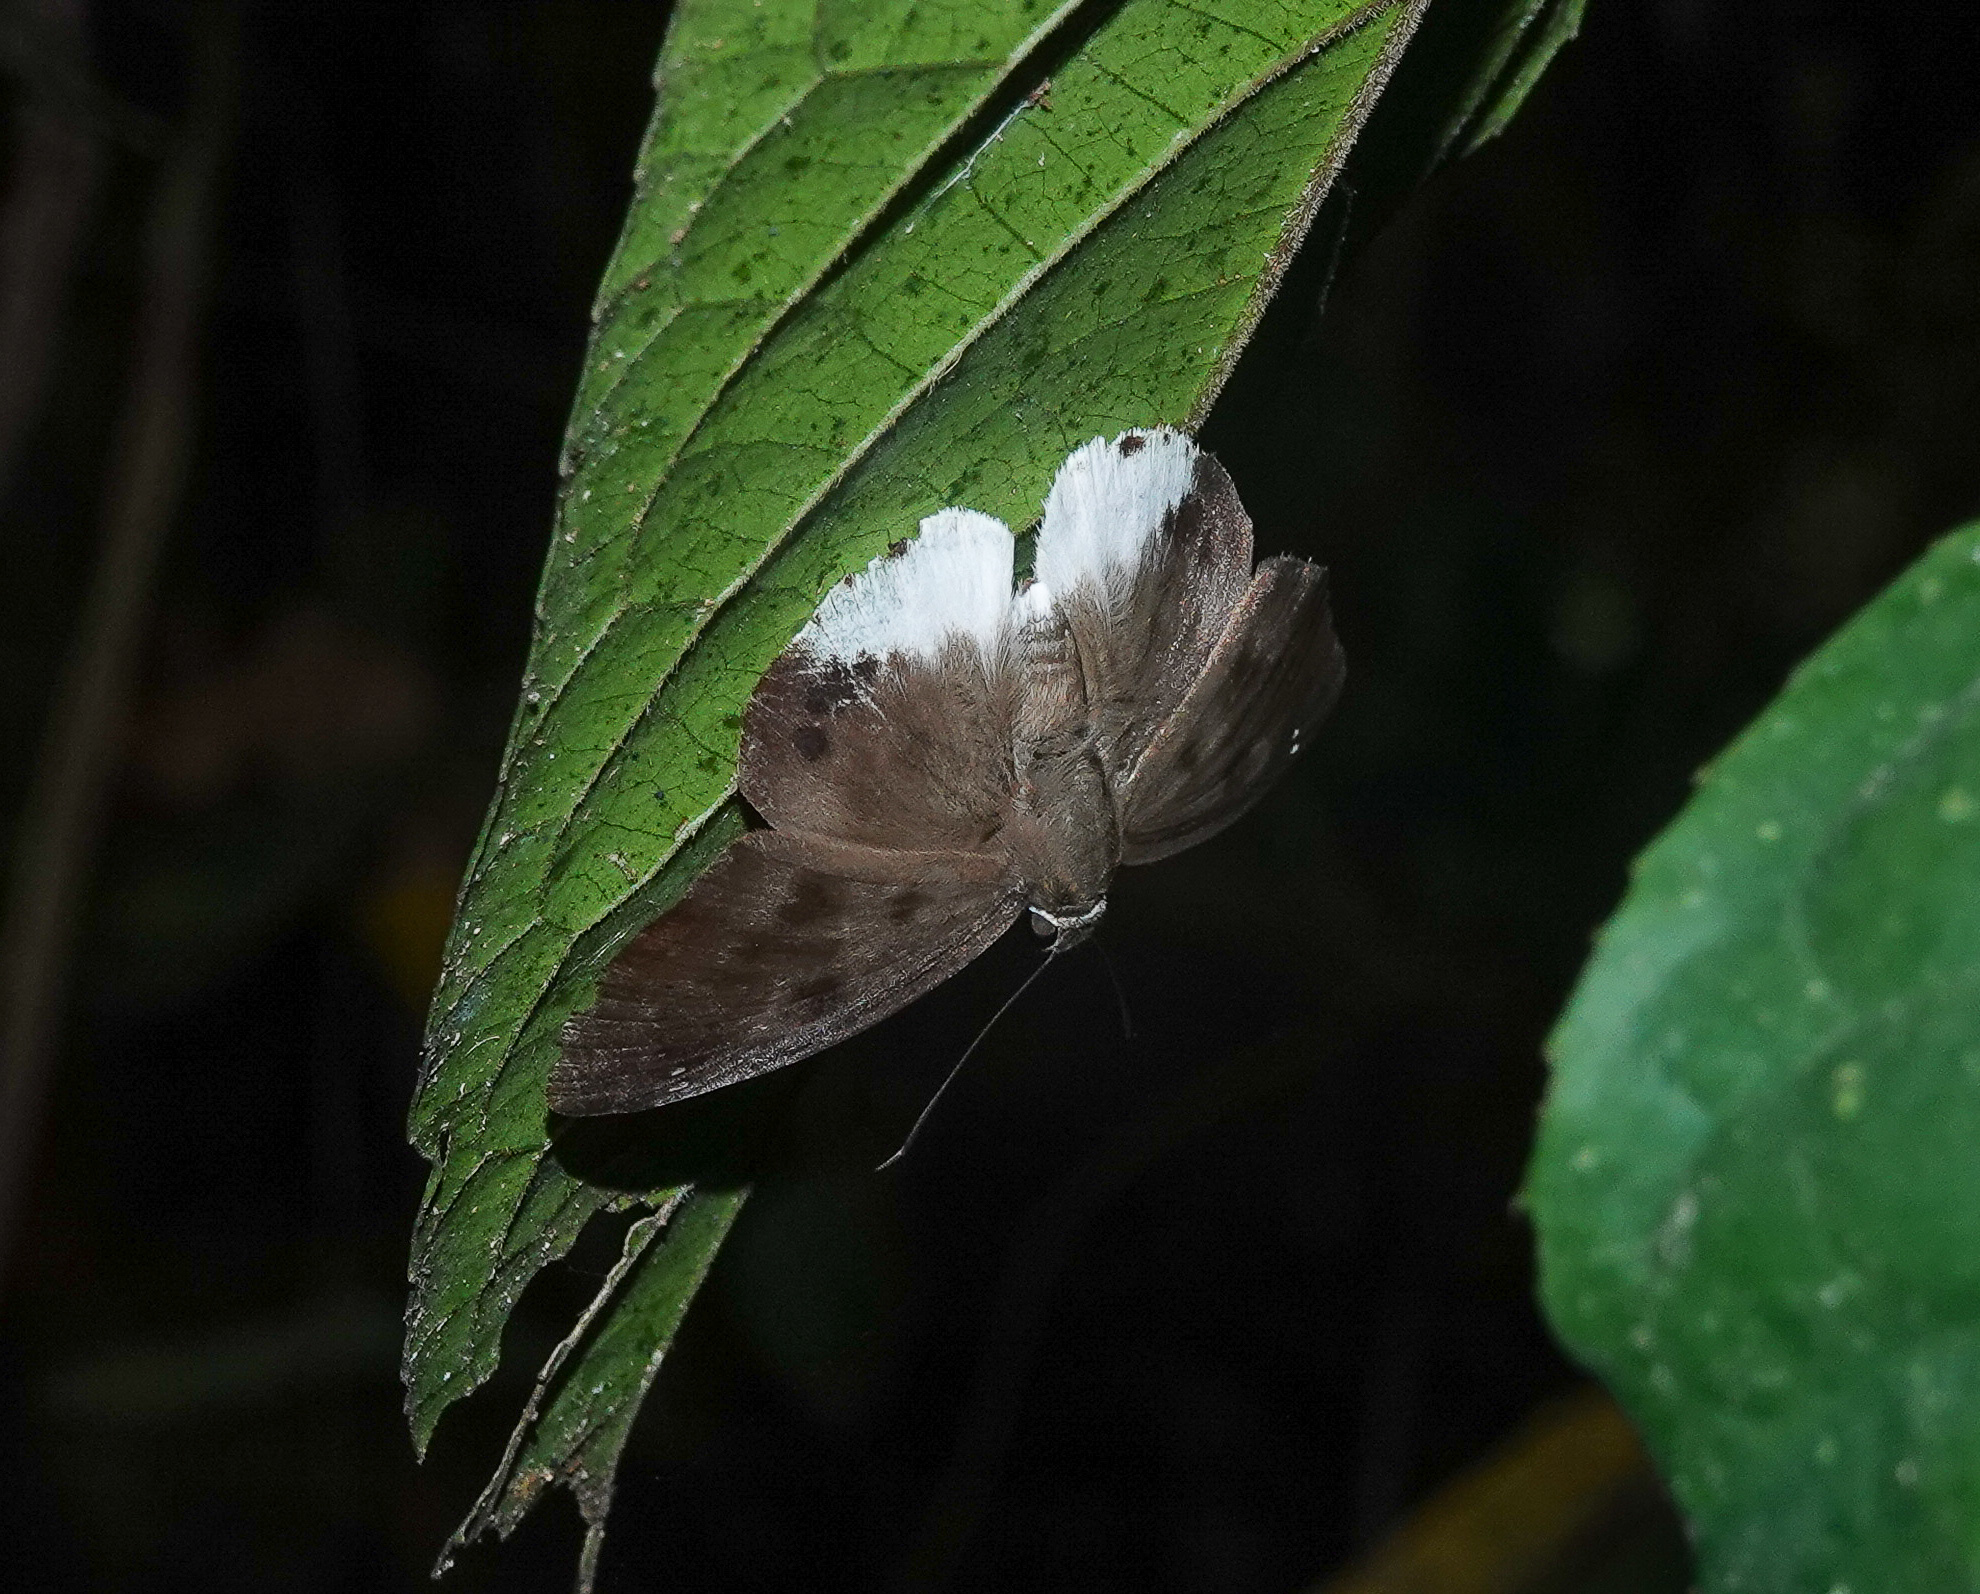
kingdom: Animalia
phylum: Arthropoda
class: Insecta
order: Lepidoptera
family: Hesperiidae
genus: Tagiades
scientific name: Tagiades gana
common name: Suffused snow flat
